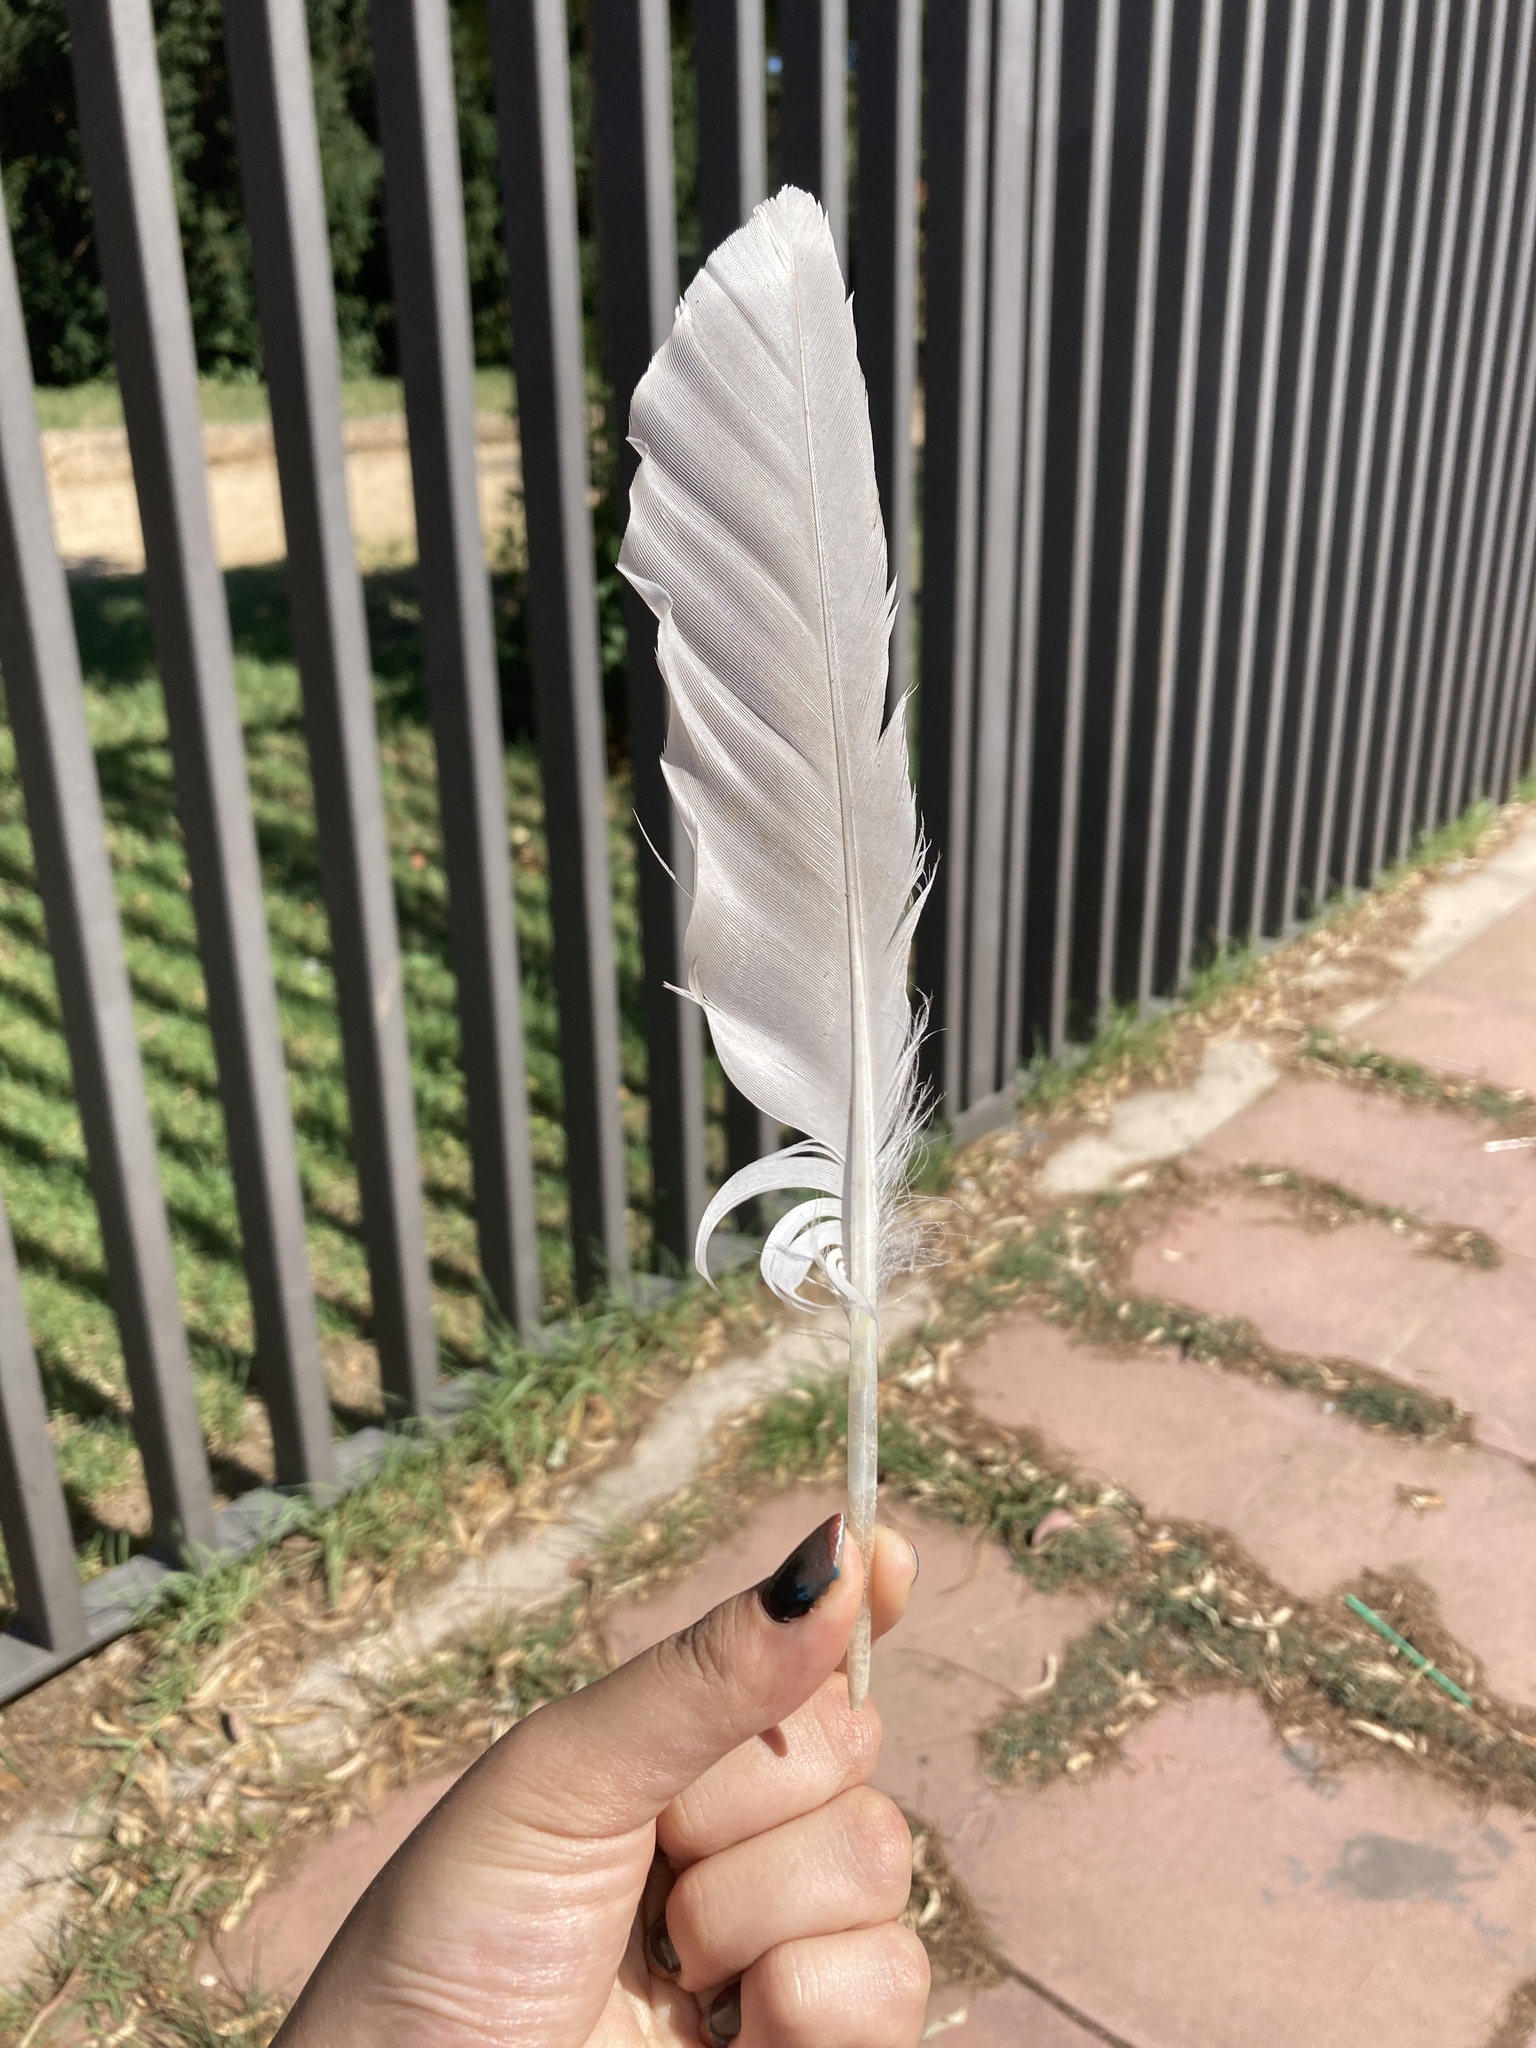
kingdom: Animalia
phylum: Chordata
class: Aves
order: Charadriiformes
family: Laridae
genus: Larus
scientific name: Larus michahellis
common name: Yellow-legged gull
